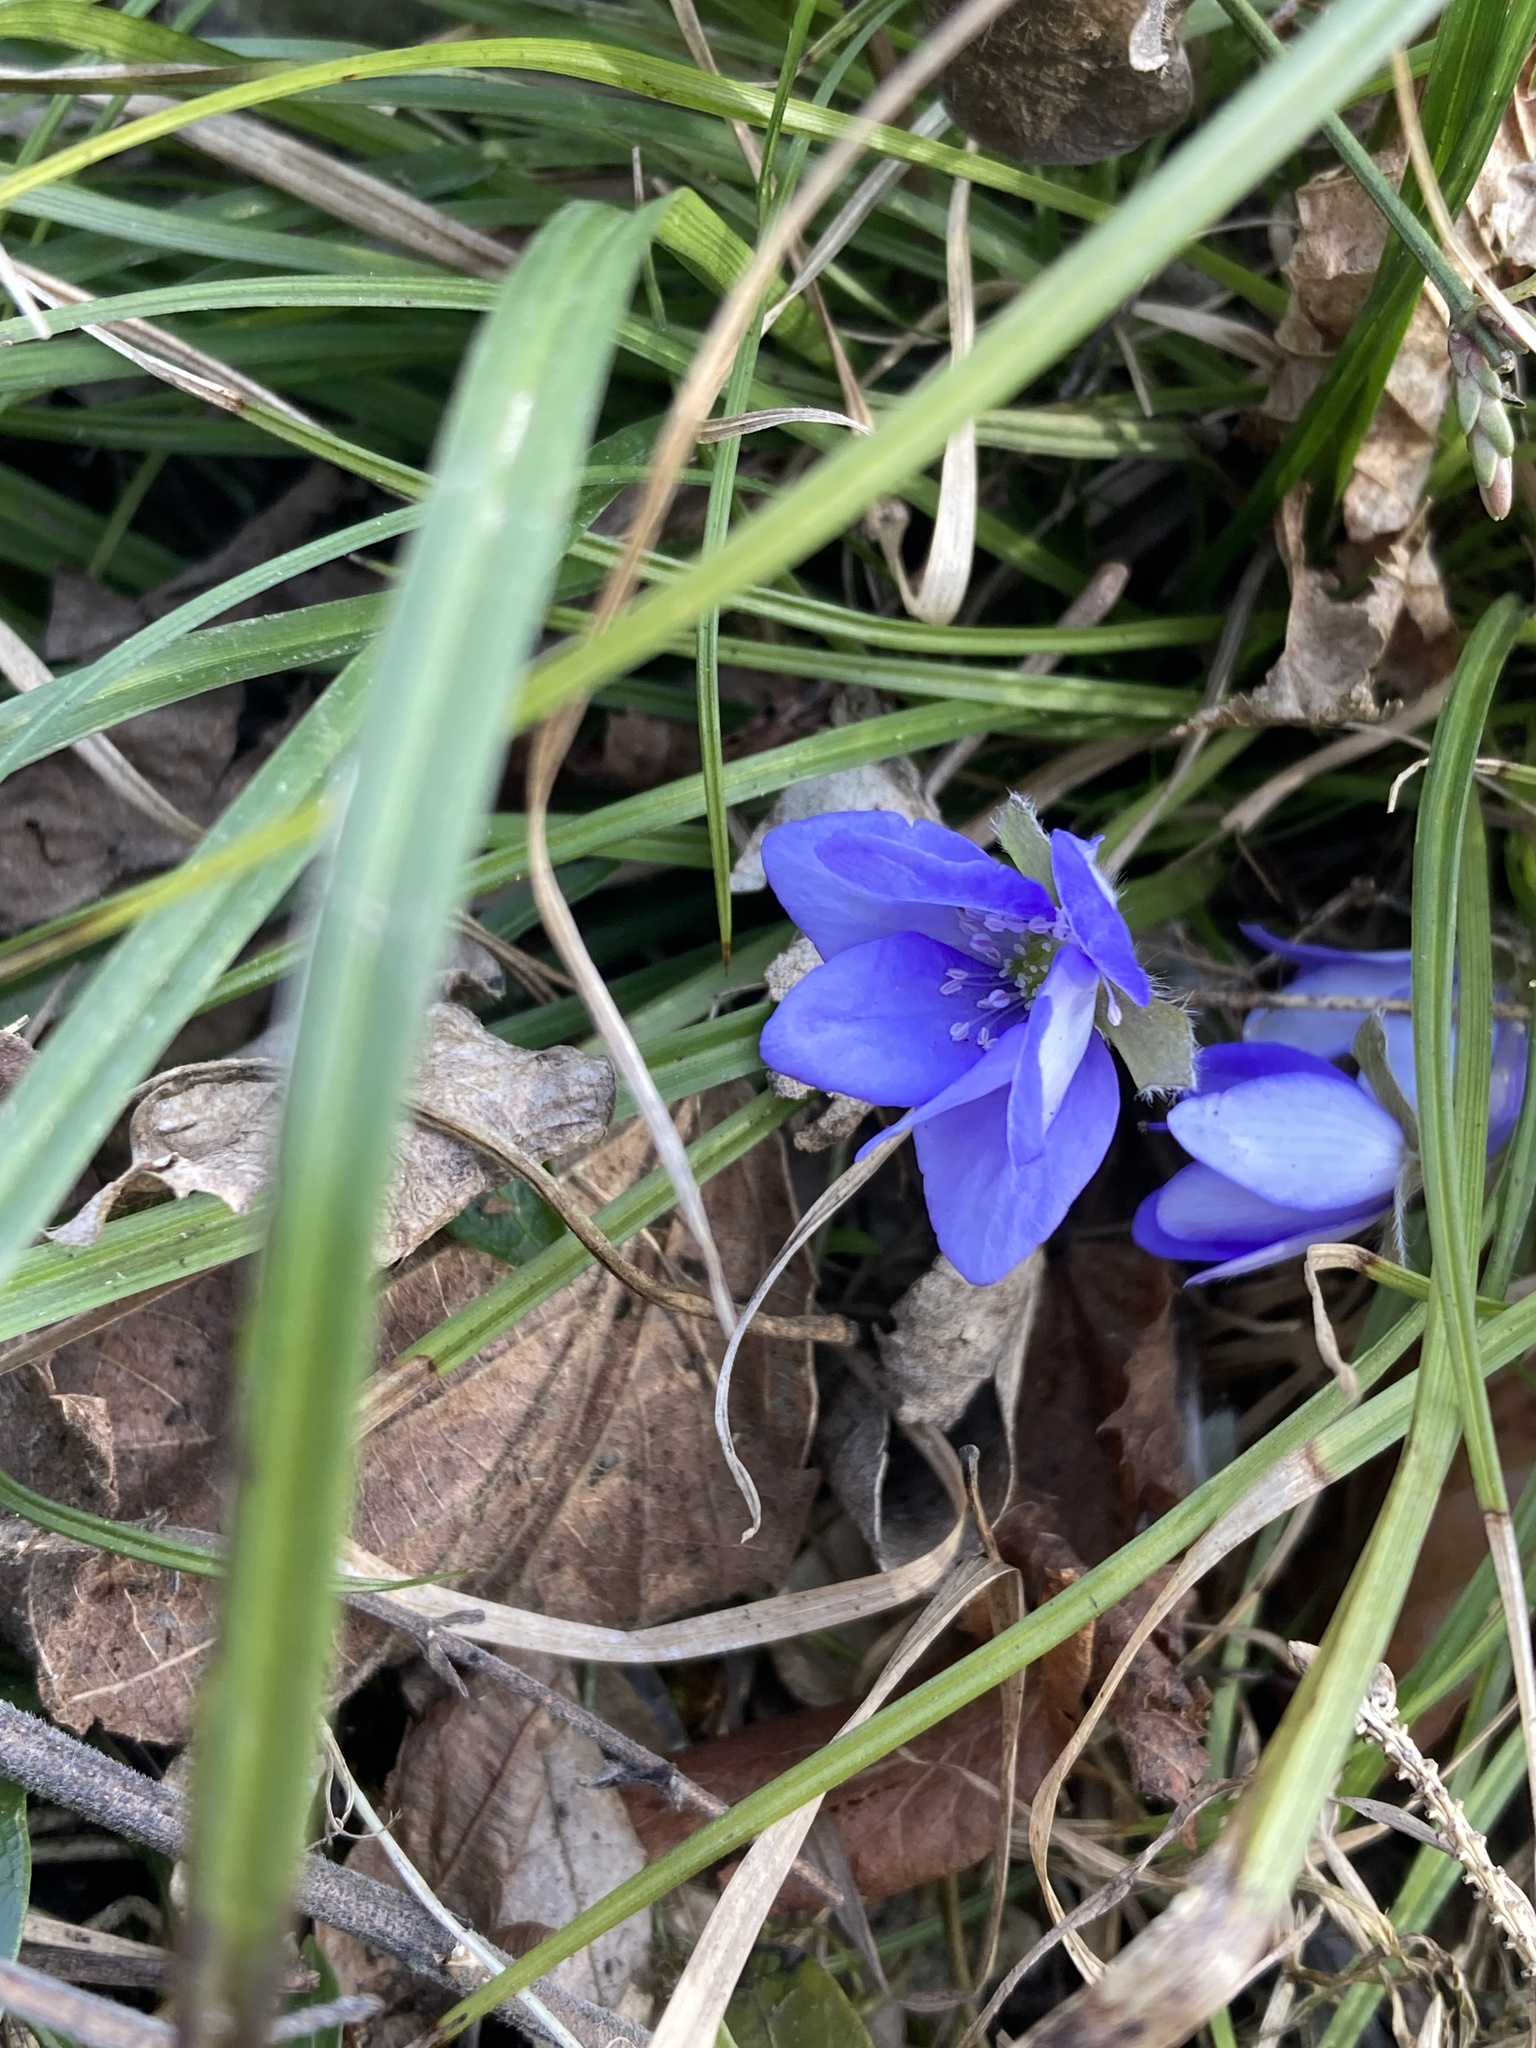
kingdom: Plantae
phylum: Tracheophyta
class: Magnoliopsida
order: Ranunculales
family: Ranunculaceae
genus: Hepatica
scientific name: Hepatica nobilis
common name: Liverleaf
